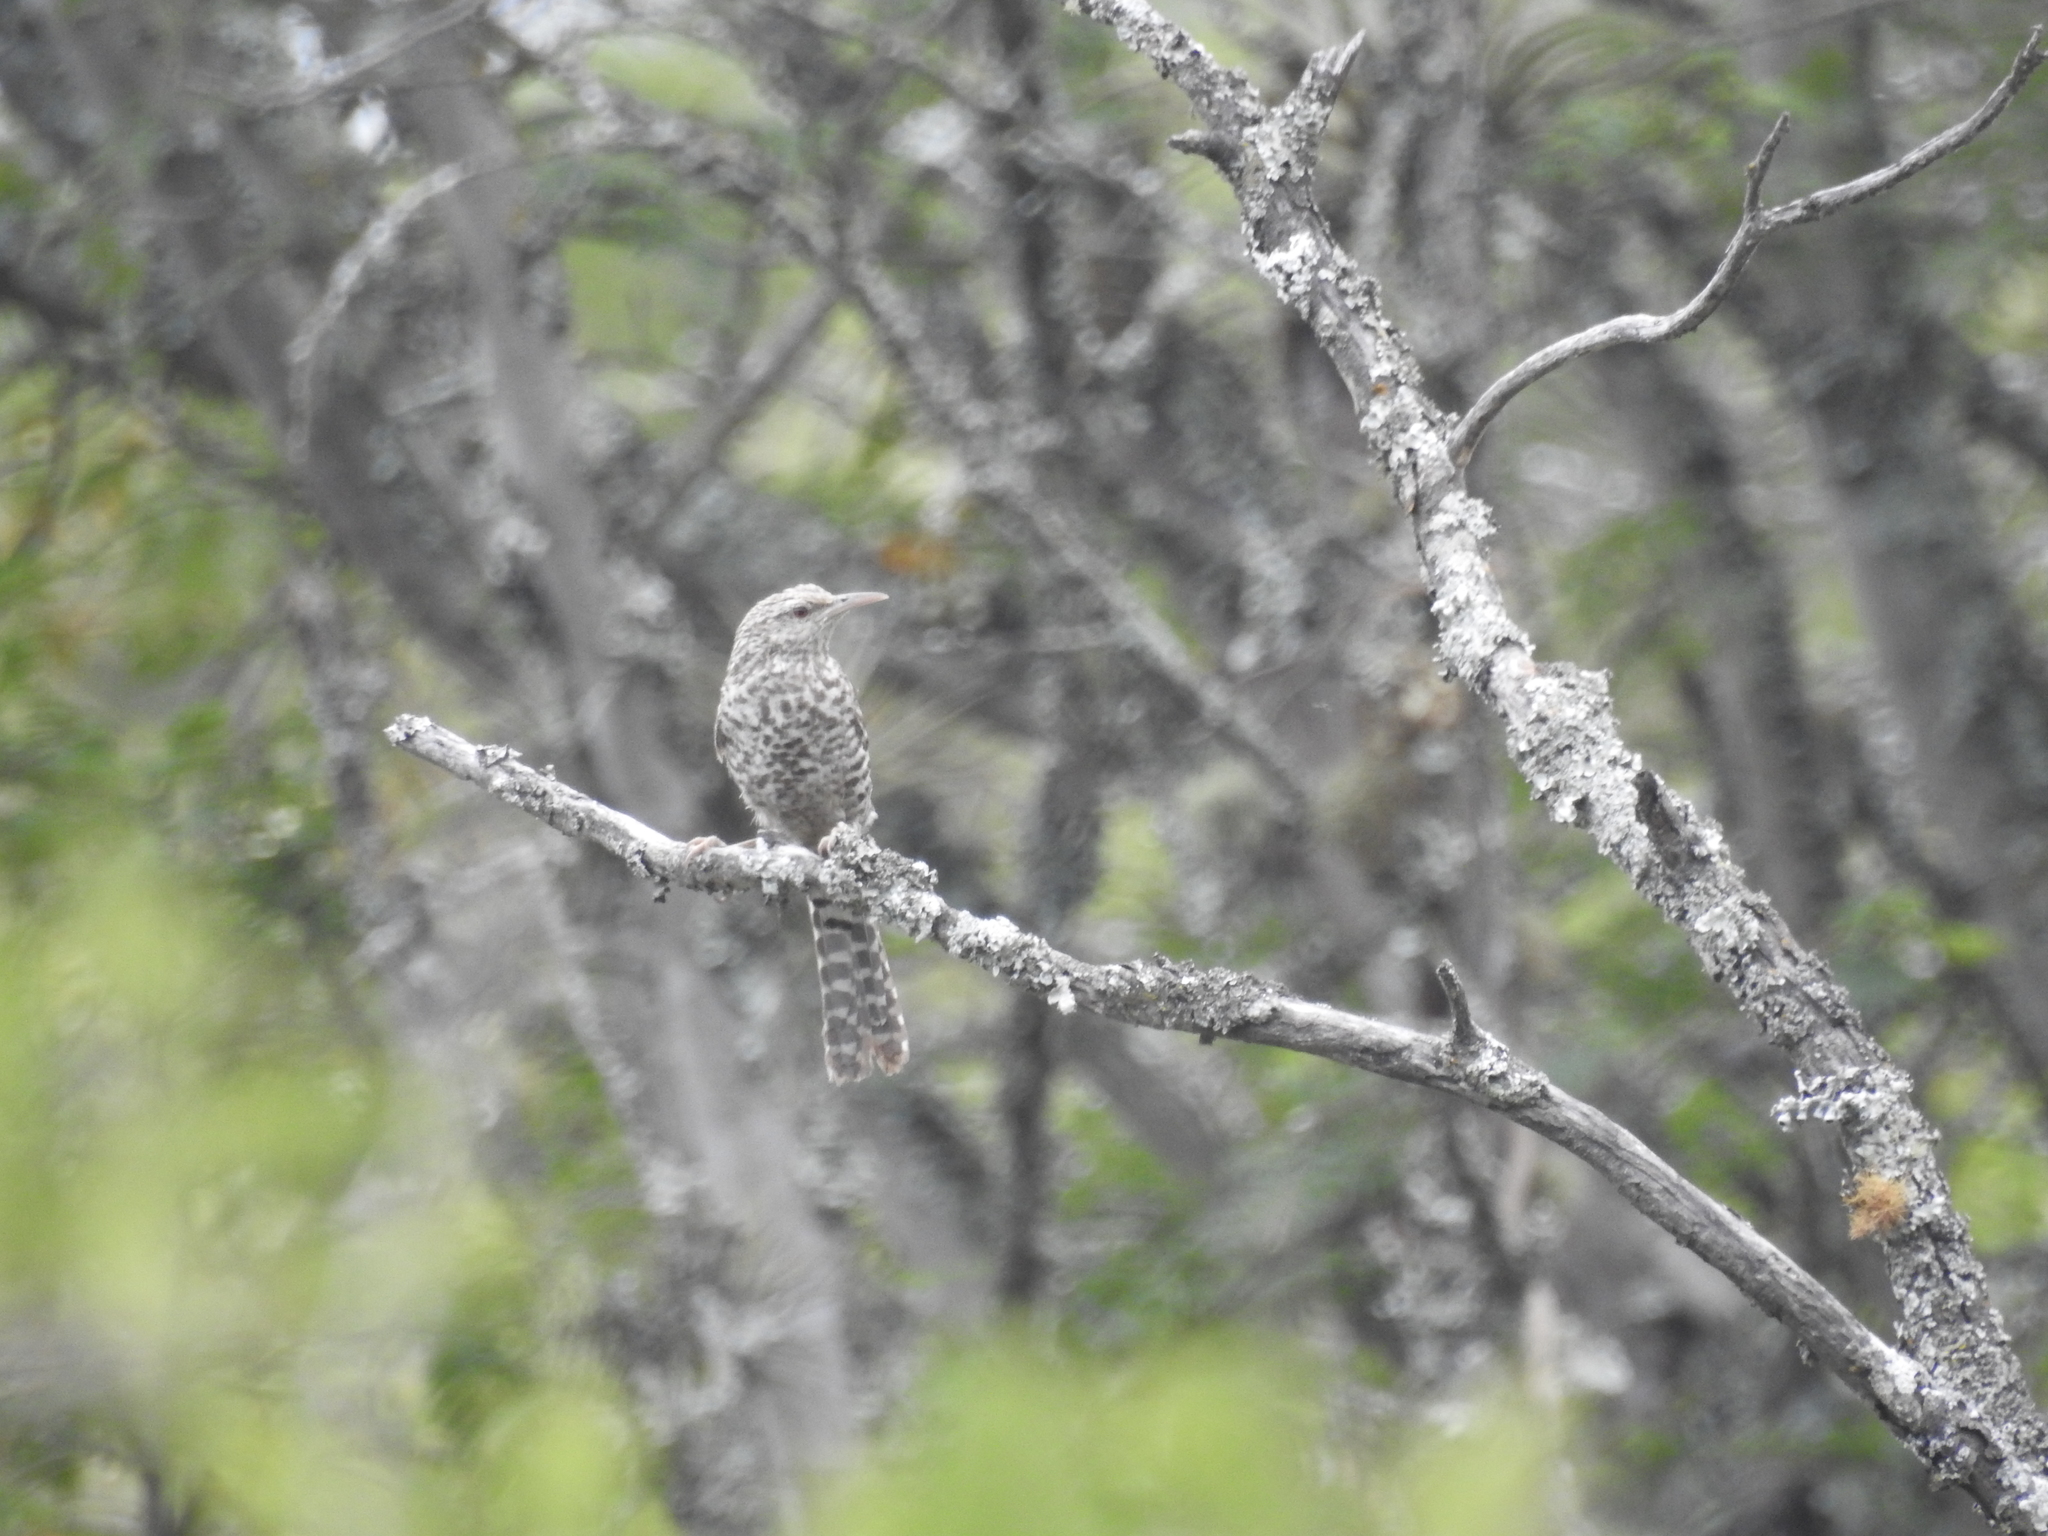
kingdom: Animalia
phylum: Chordata
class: Aves
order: Passeriformes
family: Troglodytidae
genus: Campylorhynchus
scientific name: Campylorhynchus fasciatus
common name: Fasciated wren
